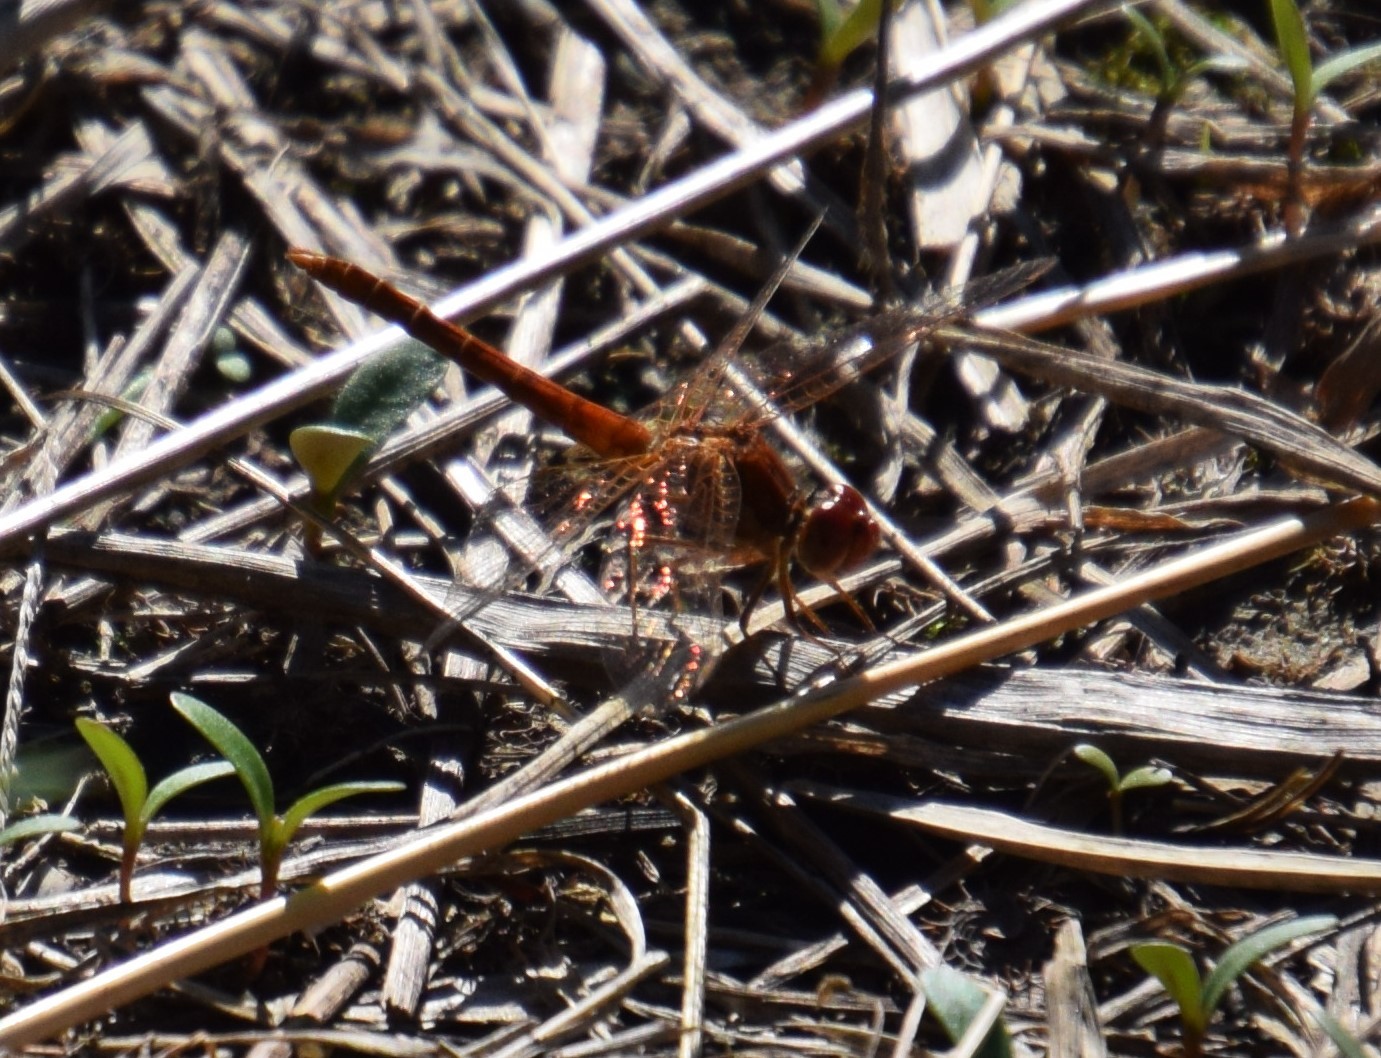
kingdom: Animalia
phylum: Arthropoda
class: Insecta
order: Odonata
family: Libellulidae
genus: Diplacodes
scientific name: Diplacodes haematodes
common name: Scarlet percher
